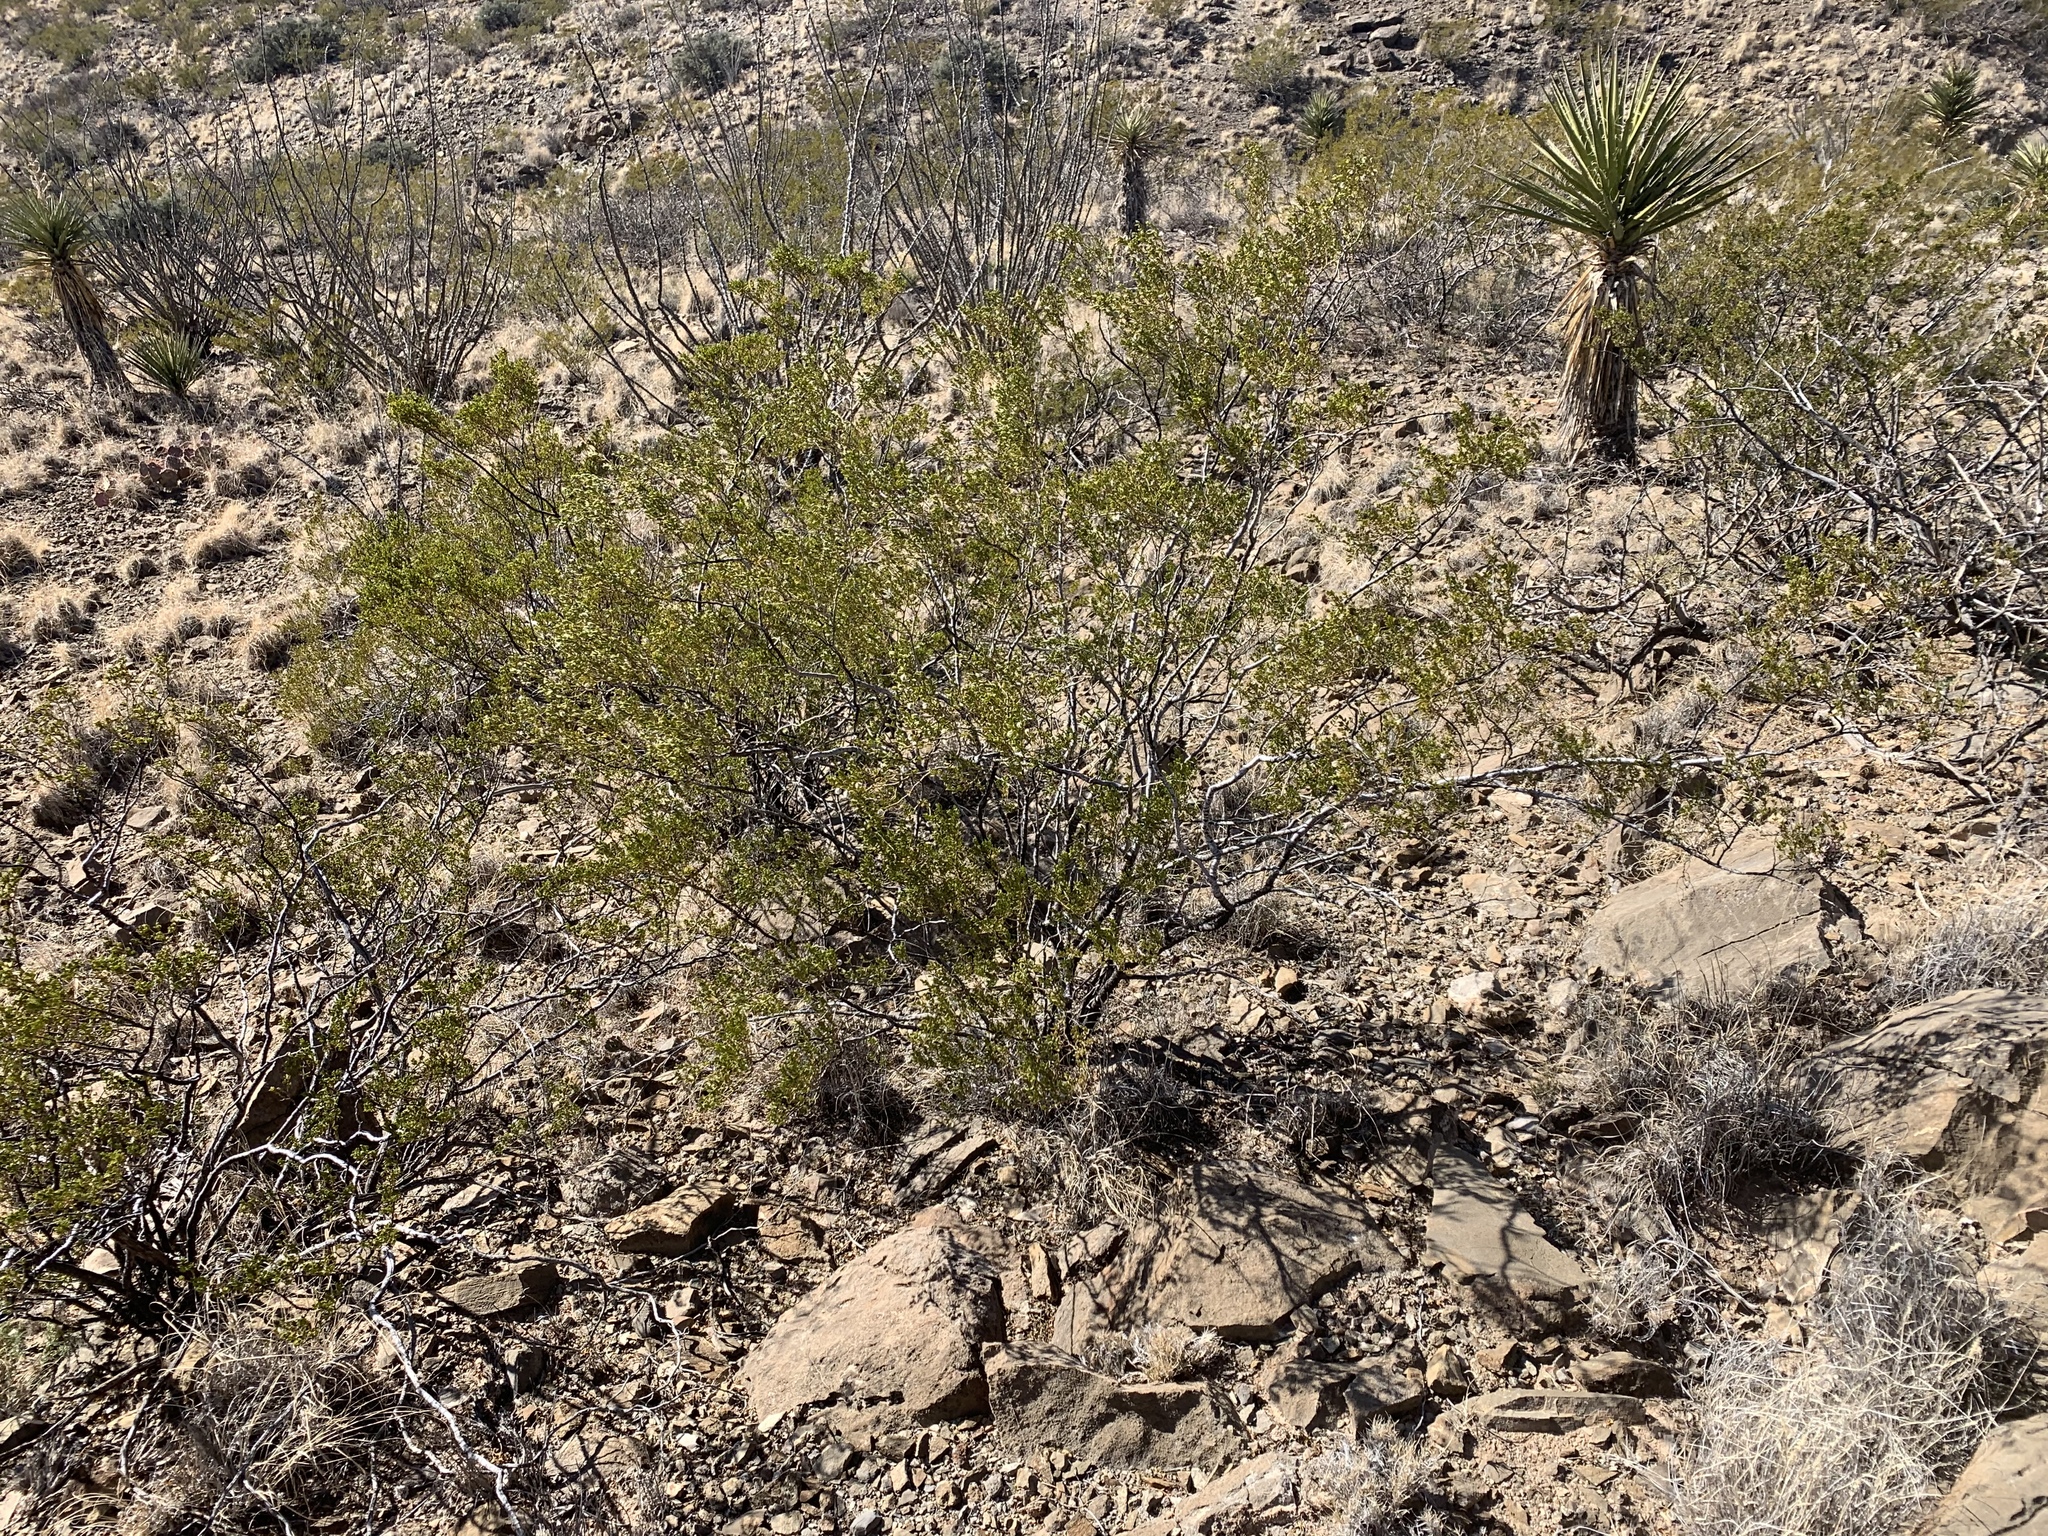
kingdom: Plantae
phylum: Tracheophyta
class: Magnoliopsida
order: Zygophyllales
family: Zygophyllaceae
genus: Larrea
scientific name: Larrea tridentata
